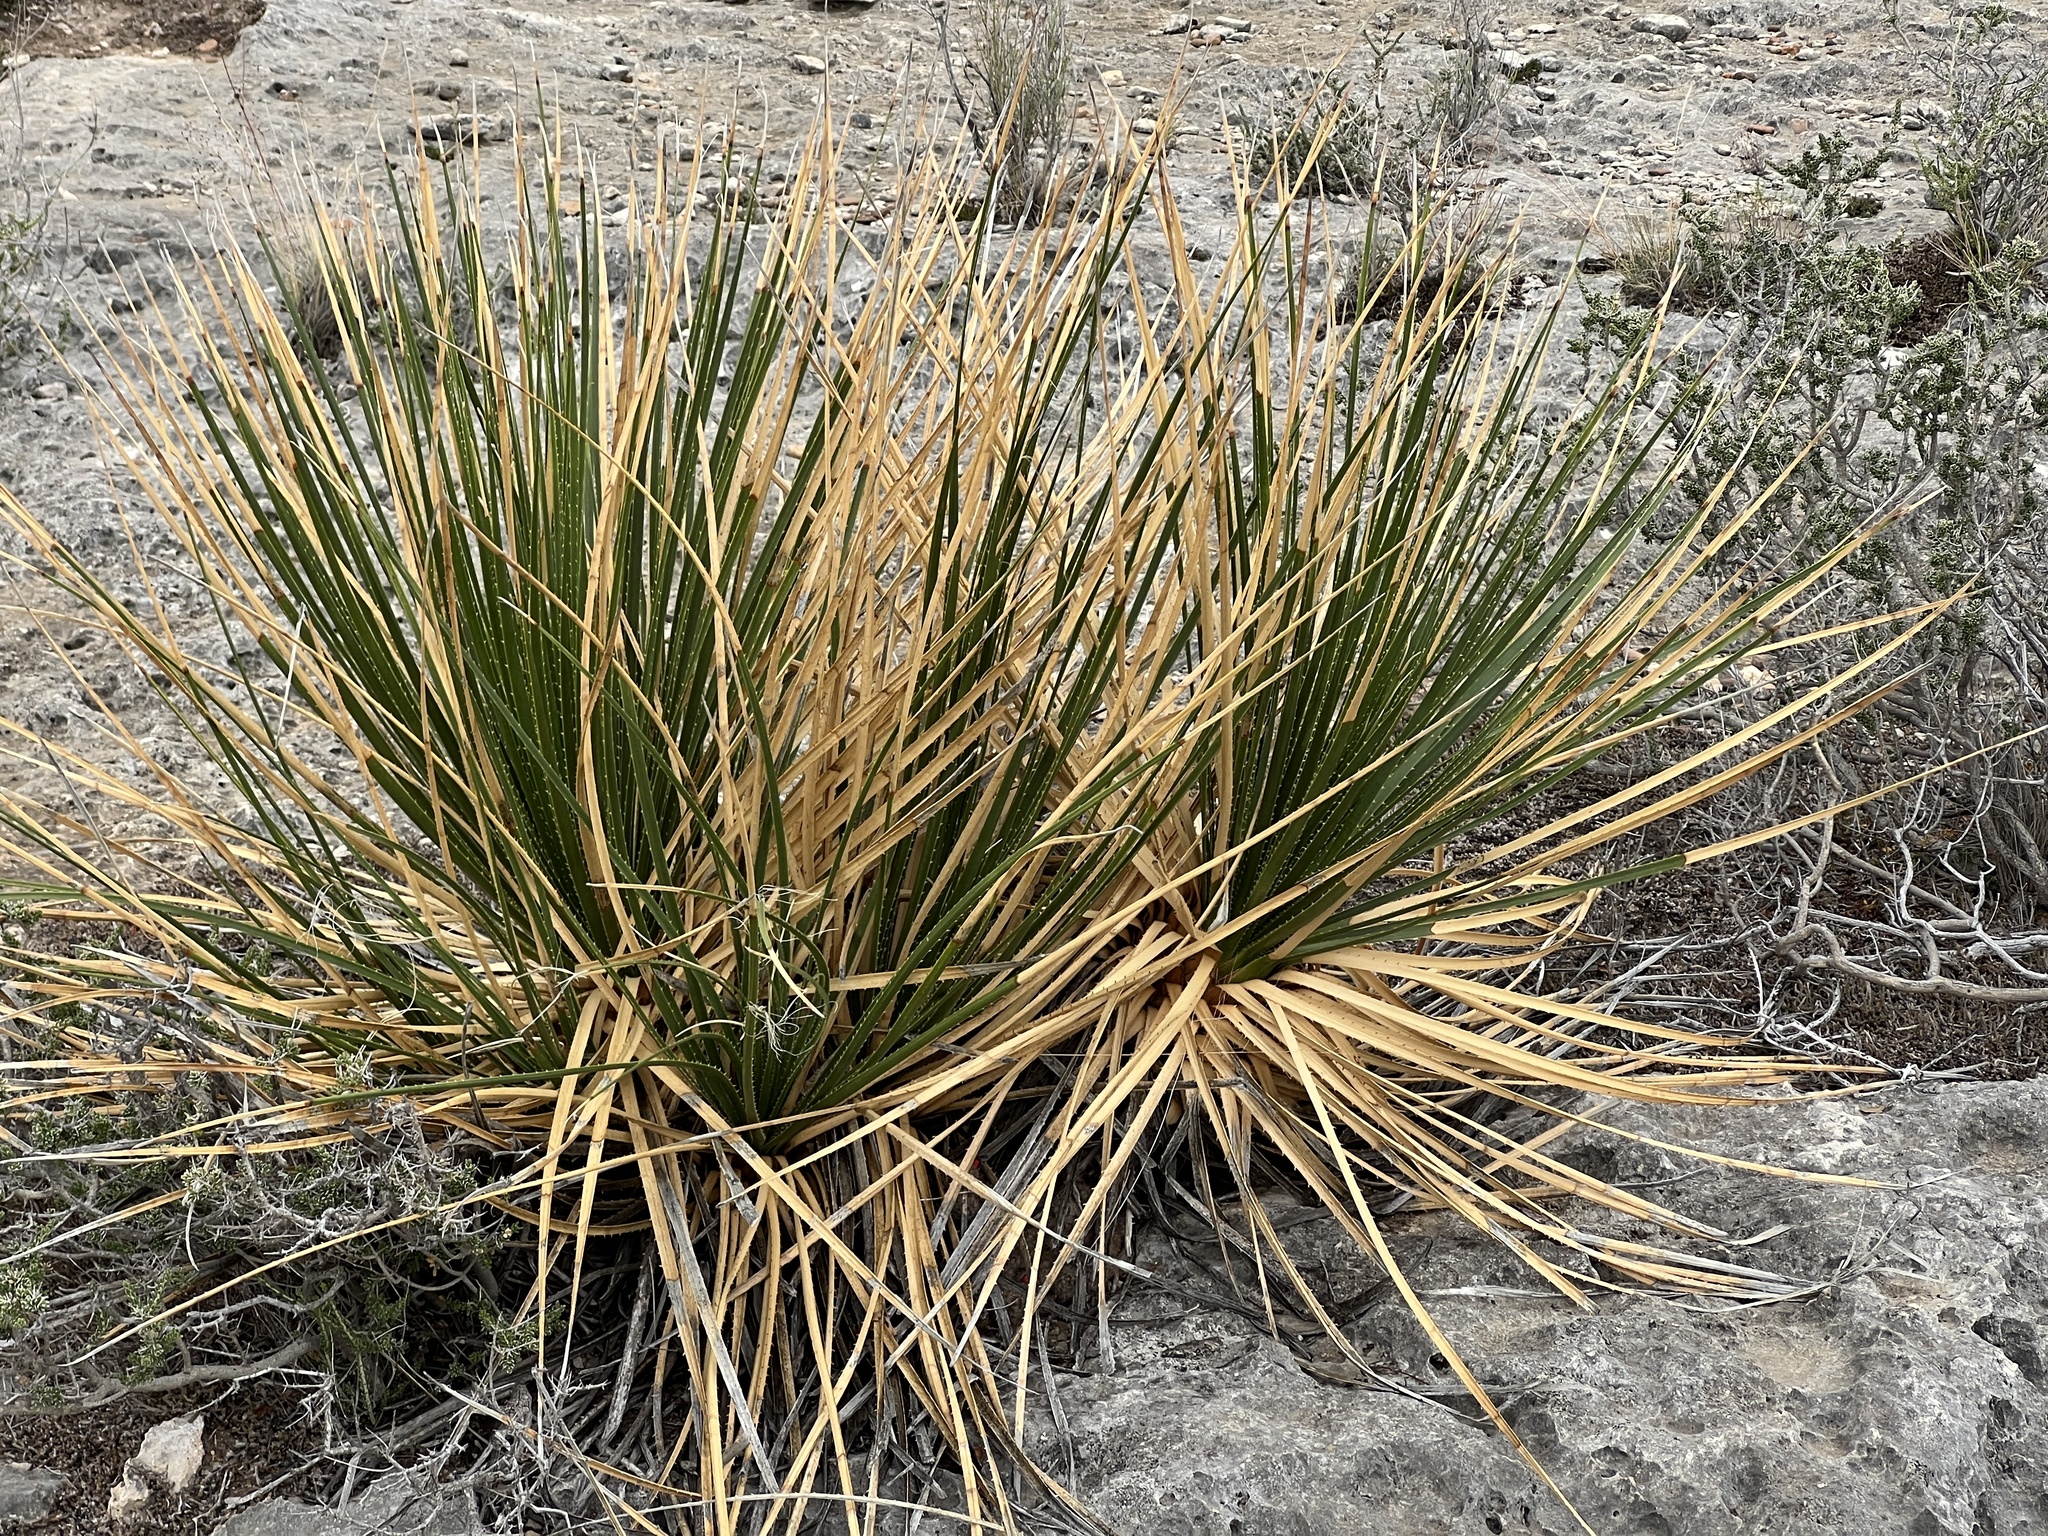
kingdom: Plantae
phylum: Tracheophyta
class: Liliopsida
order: Asparagales
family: Asparagaceae
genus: Dasylirion
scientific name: Dasylirion texanum
